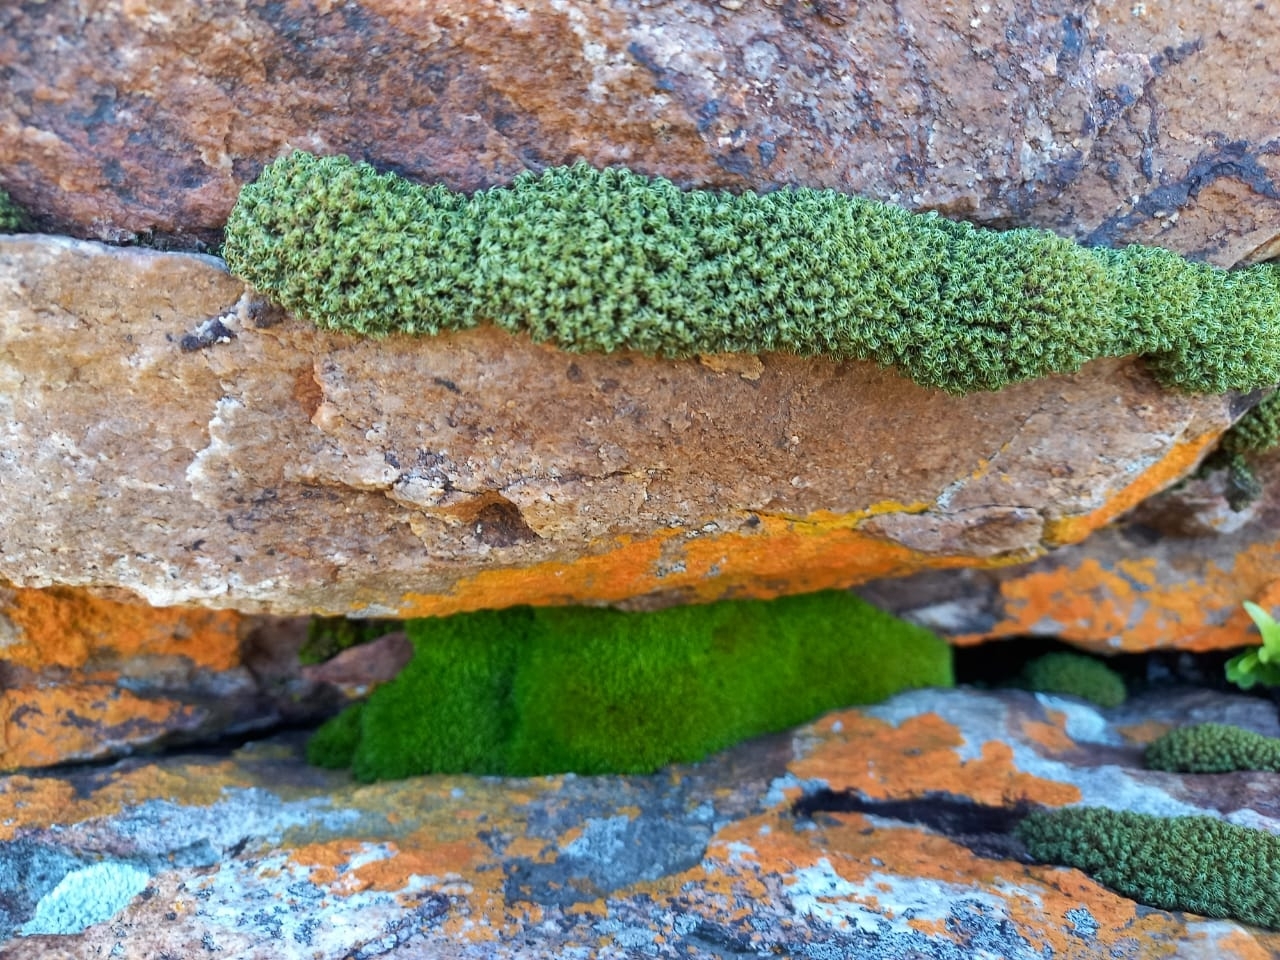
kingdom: Plantae
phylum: Bryophyta
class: Bryopsida
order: Dicranales
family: Hypodontiaceae
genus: Hypodontium
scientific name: Hypodontium dregei
